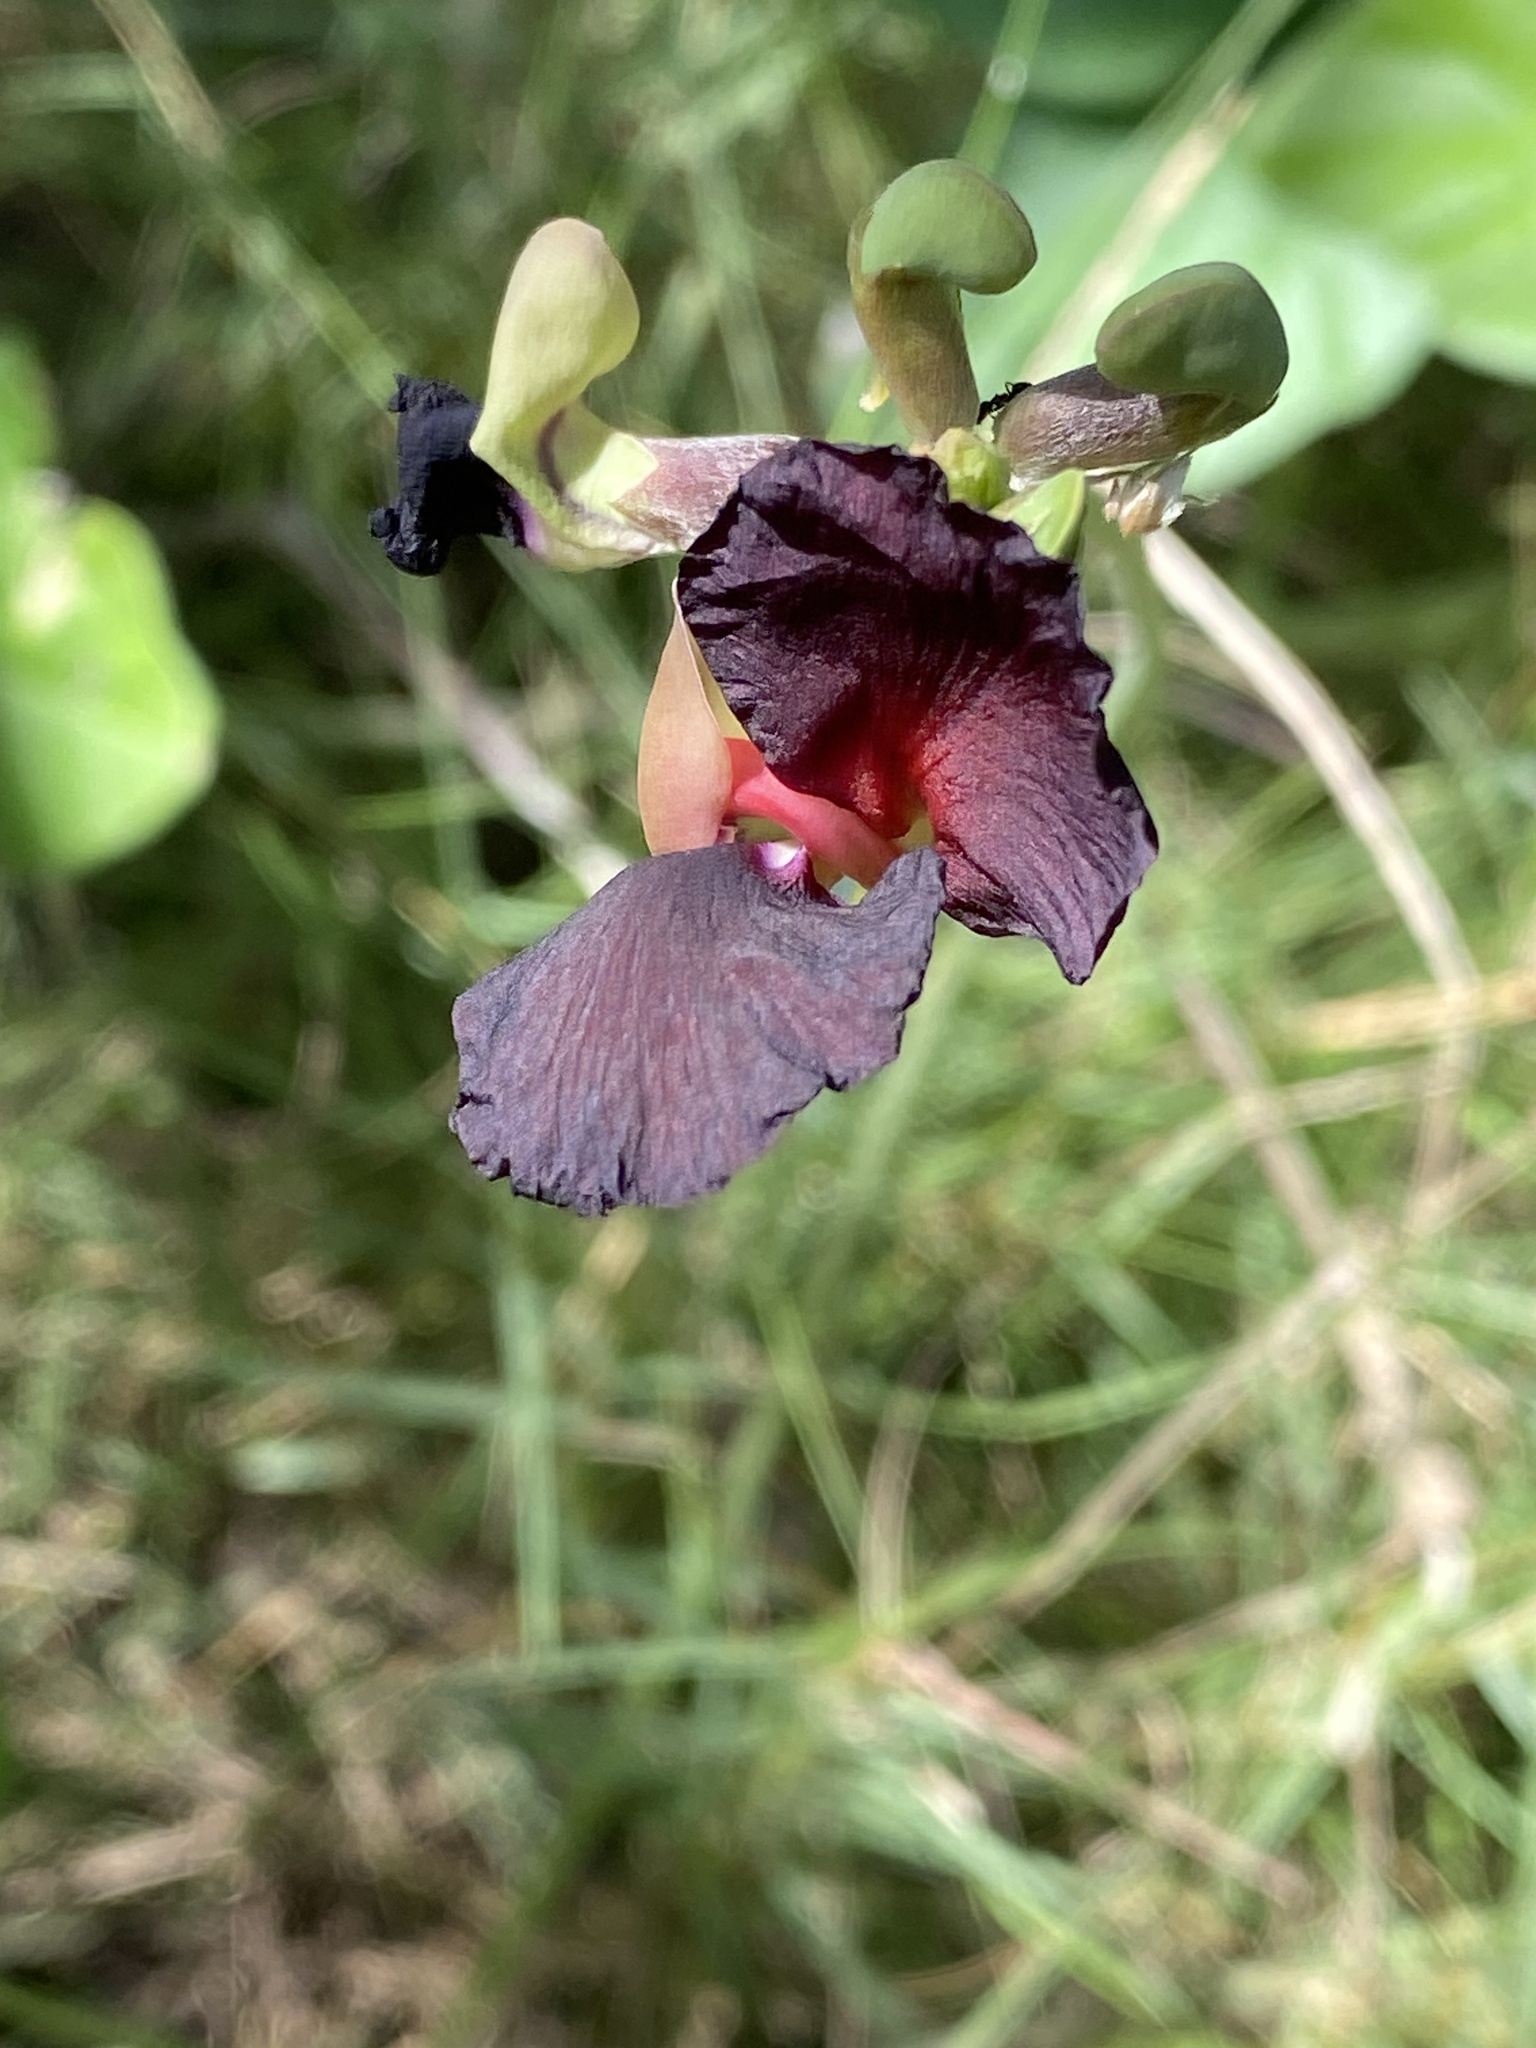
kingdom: Plantae
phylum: Tracheophyta
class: Magnoliopsida
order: Fabales
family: Fabaceae
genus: Macroptilium
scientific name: Macroptilium atropurpureum
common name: Purple bushbean
